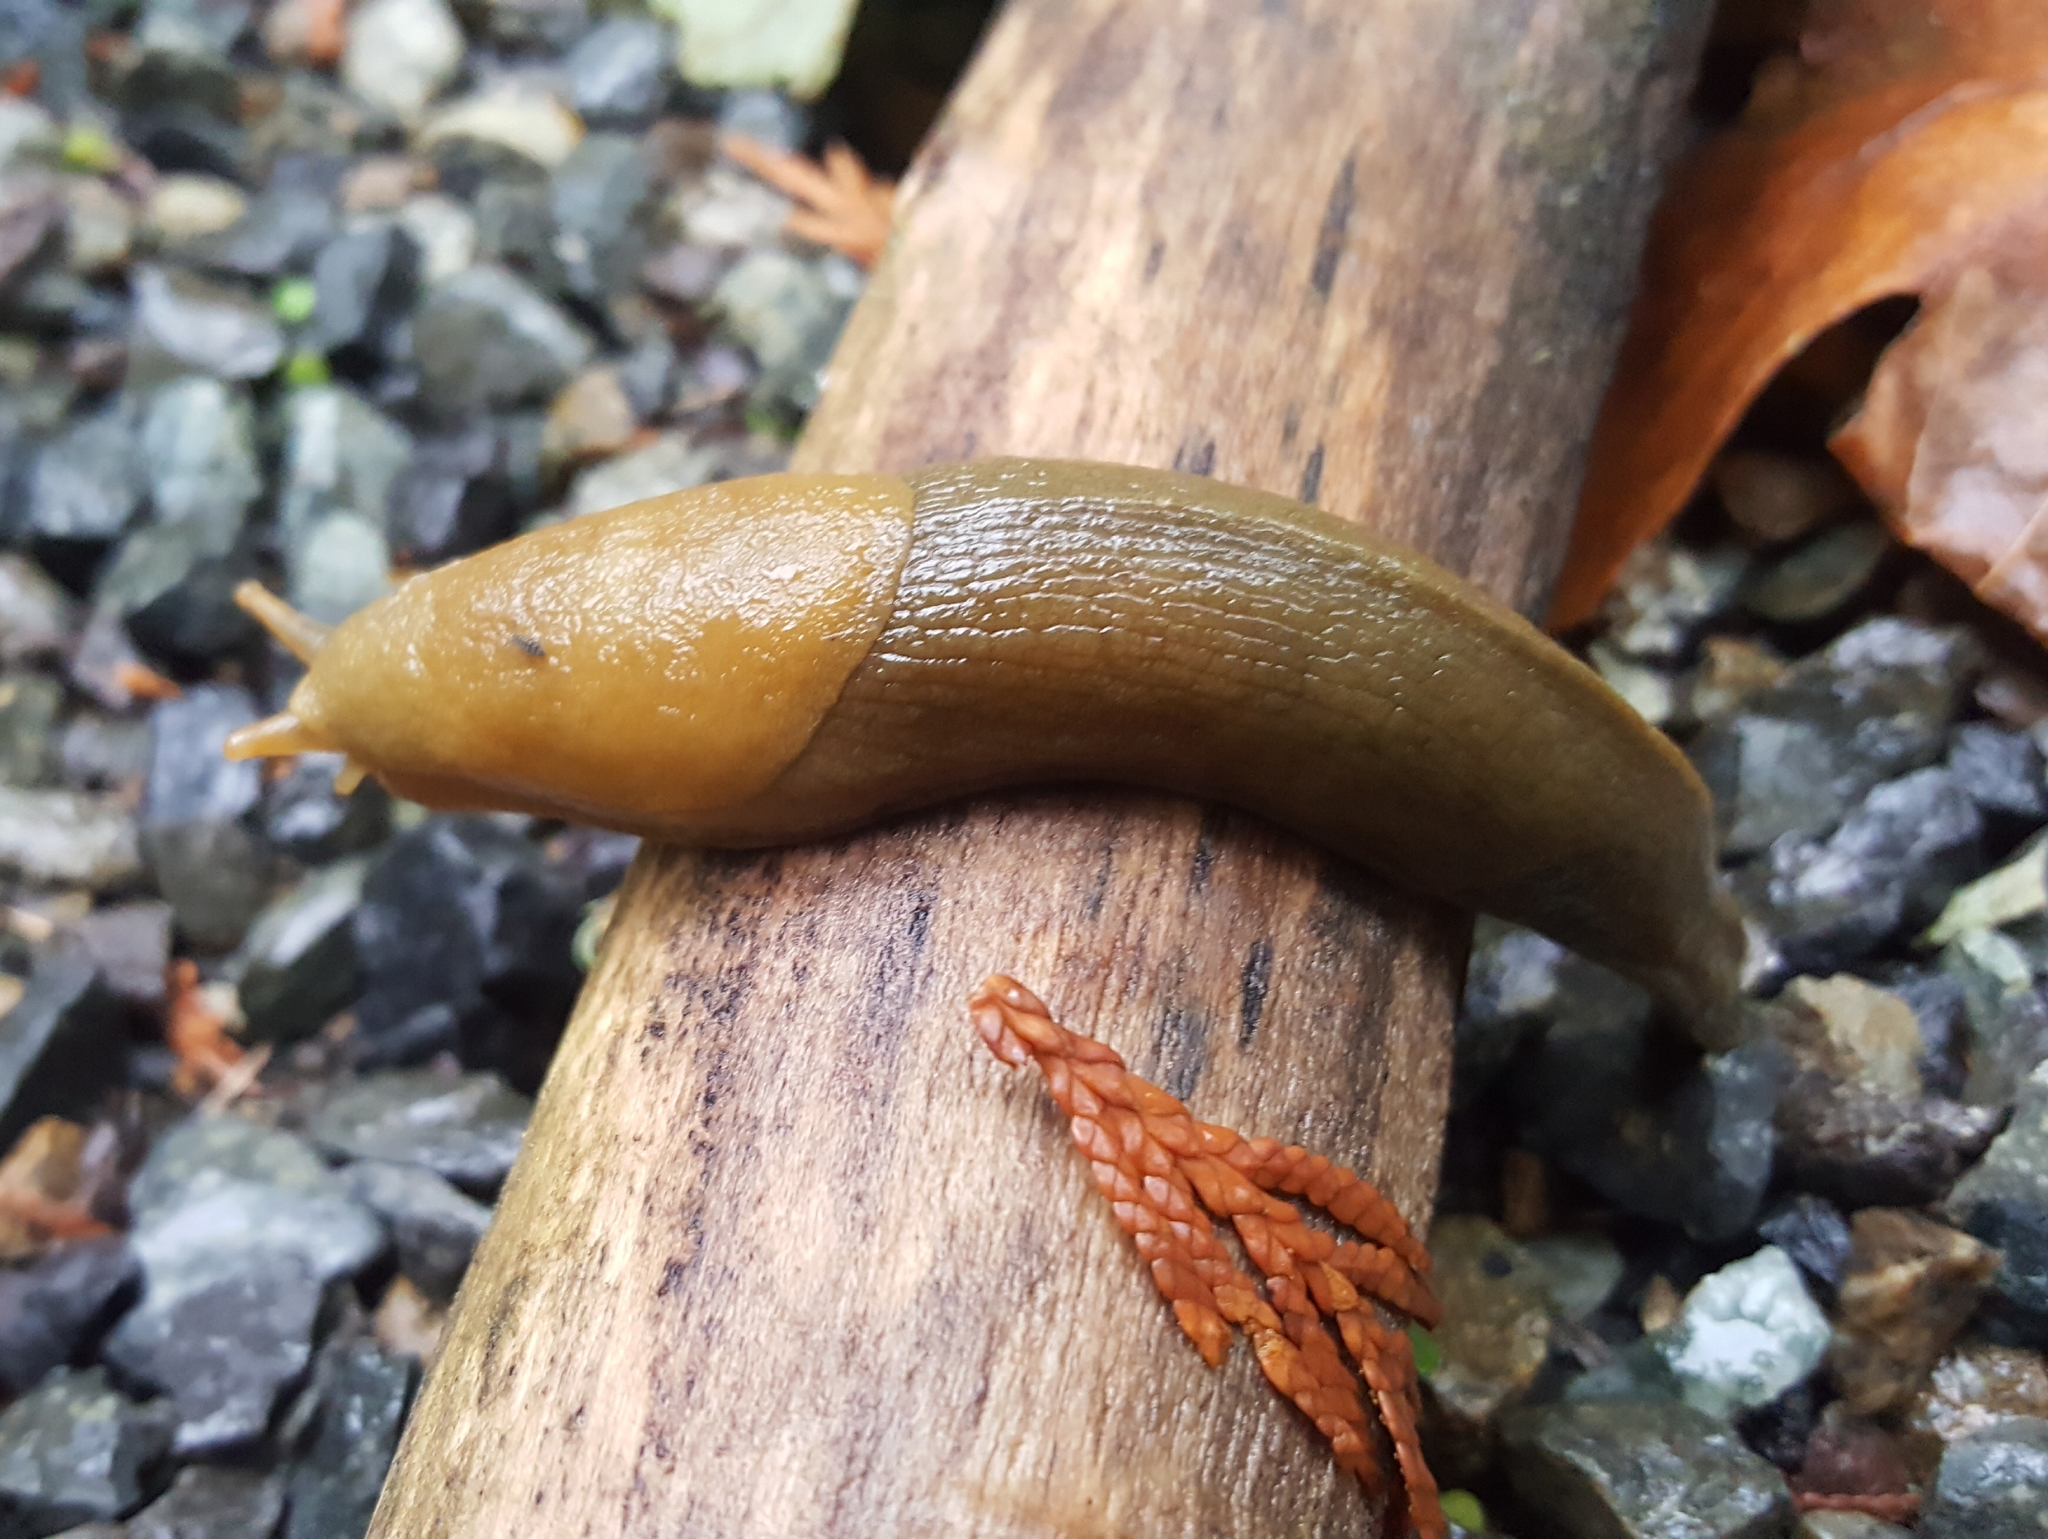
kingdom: Animalia
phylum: Mollusca
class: Gastropoda
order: Stylommatophora
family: Ariolimacidae
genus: Ariolimax
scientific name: Ariolimax columbianus
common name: Pacific banana slug
